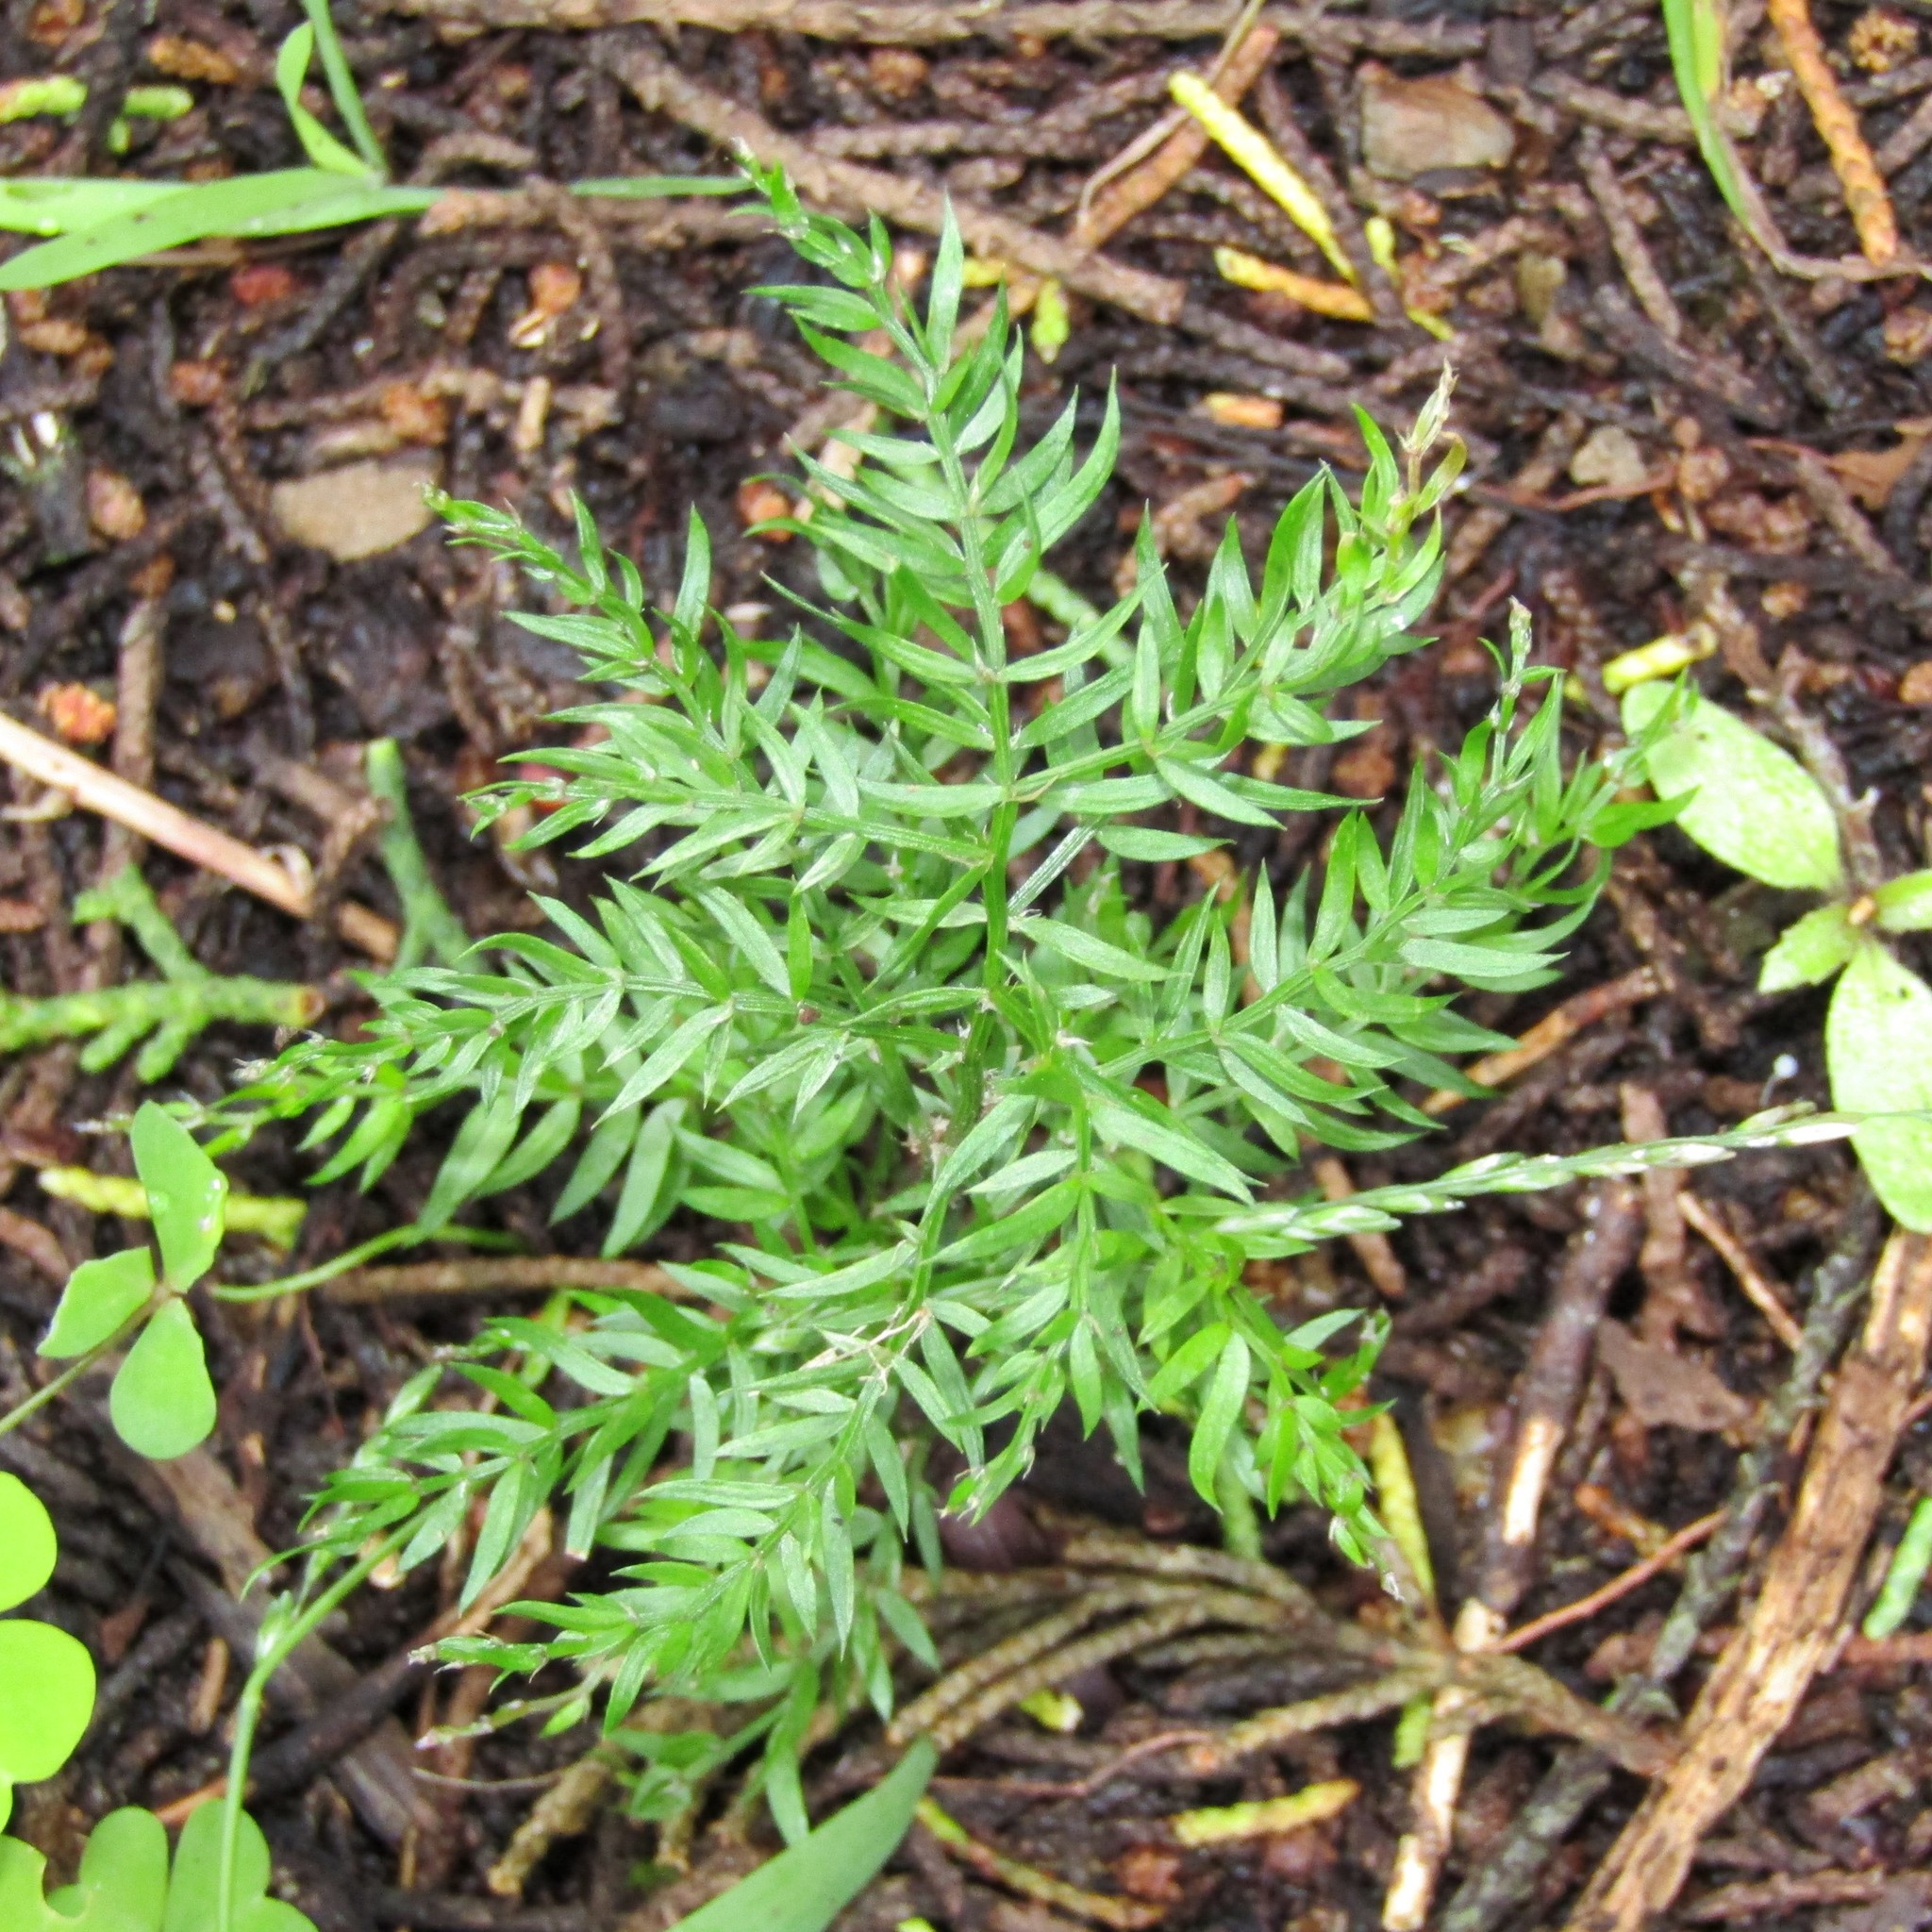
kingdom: Plantae
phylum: Tracheophyta
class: Liliopsida
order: Asparagales
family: Asparagaceae
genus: Asparagus
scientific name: Asparagus scandens
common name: Asparagus-fern
